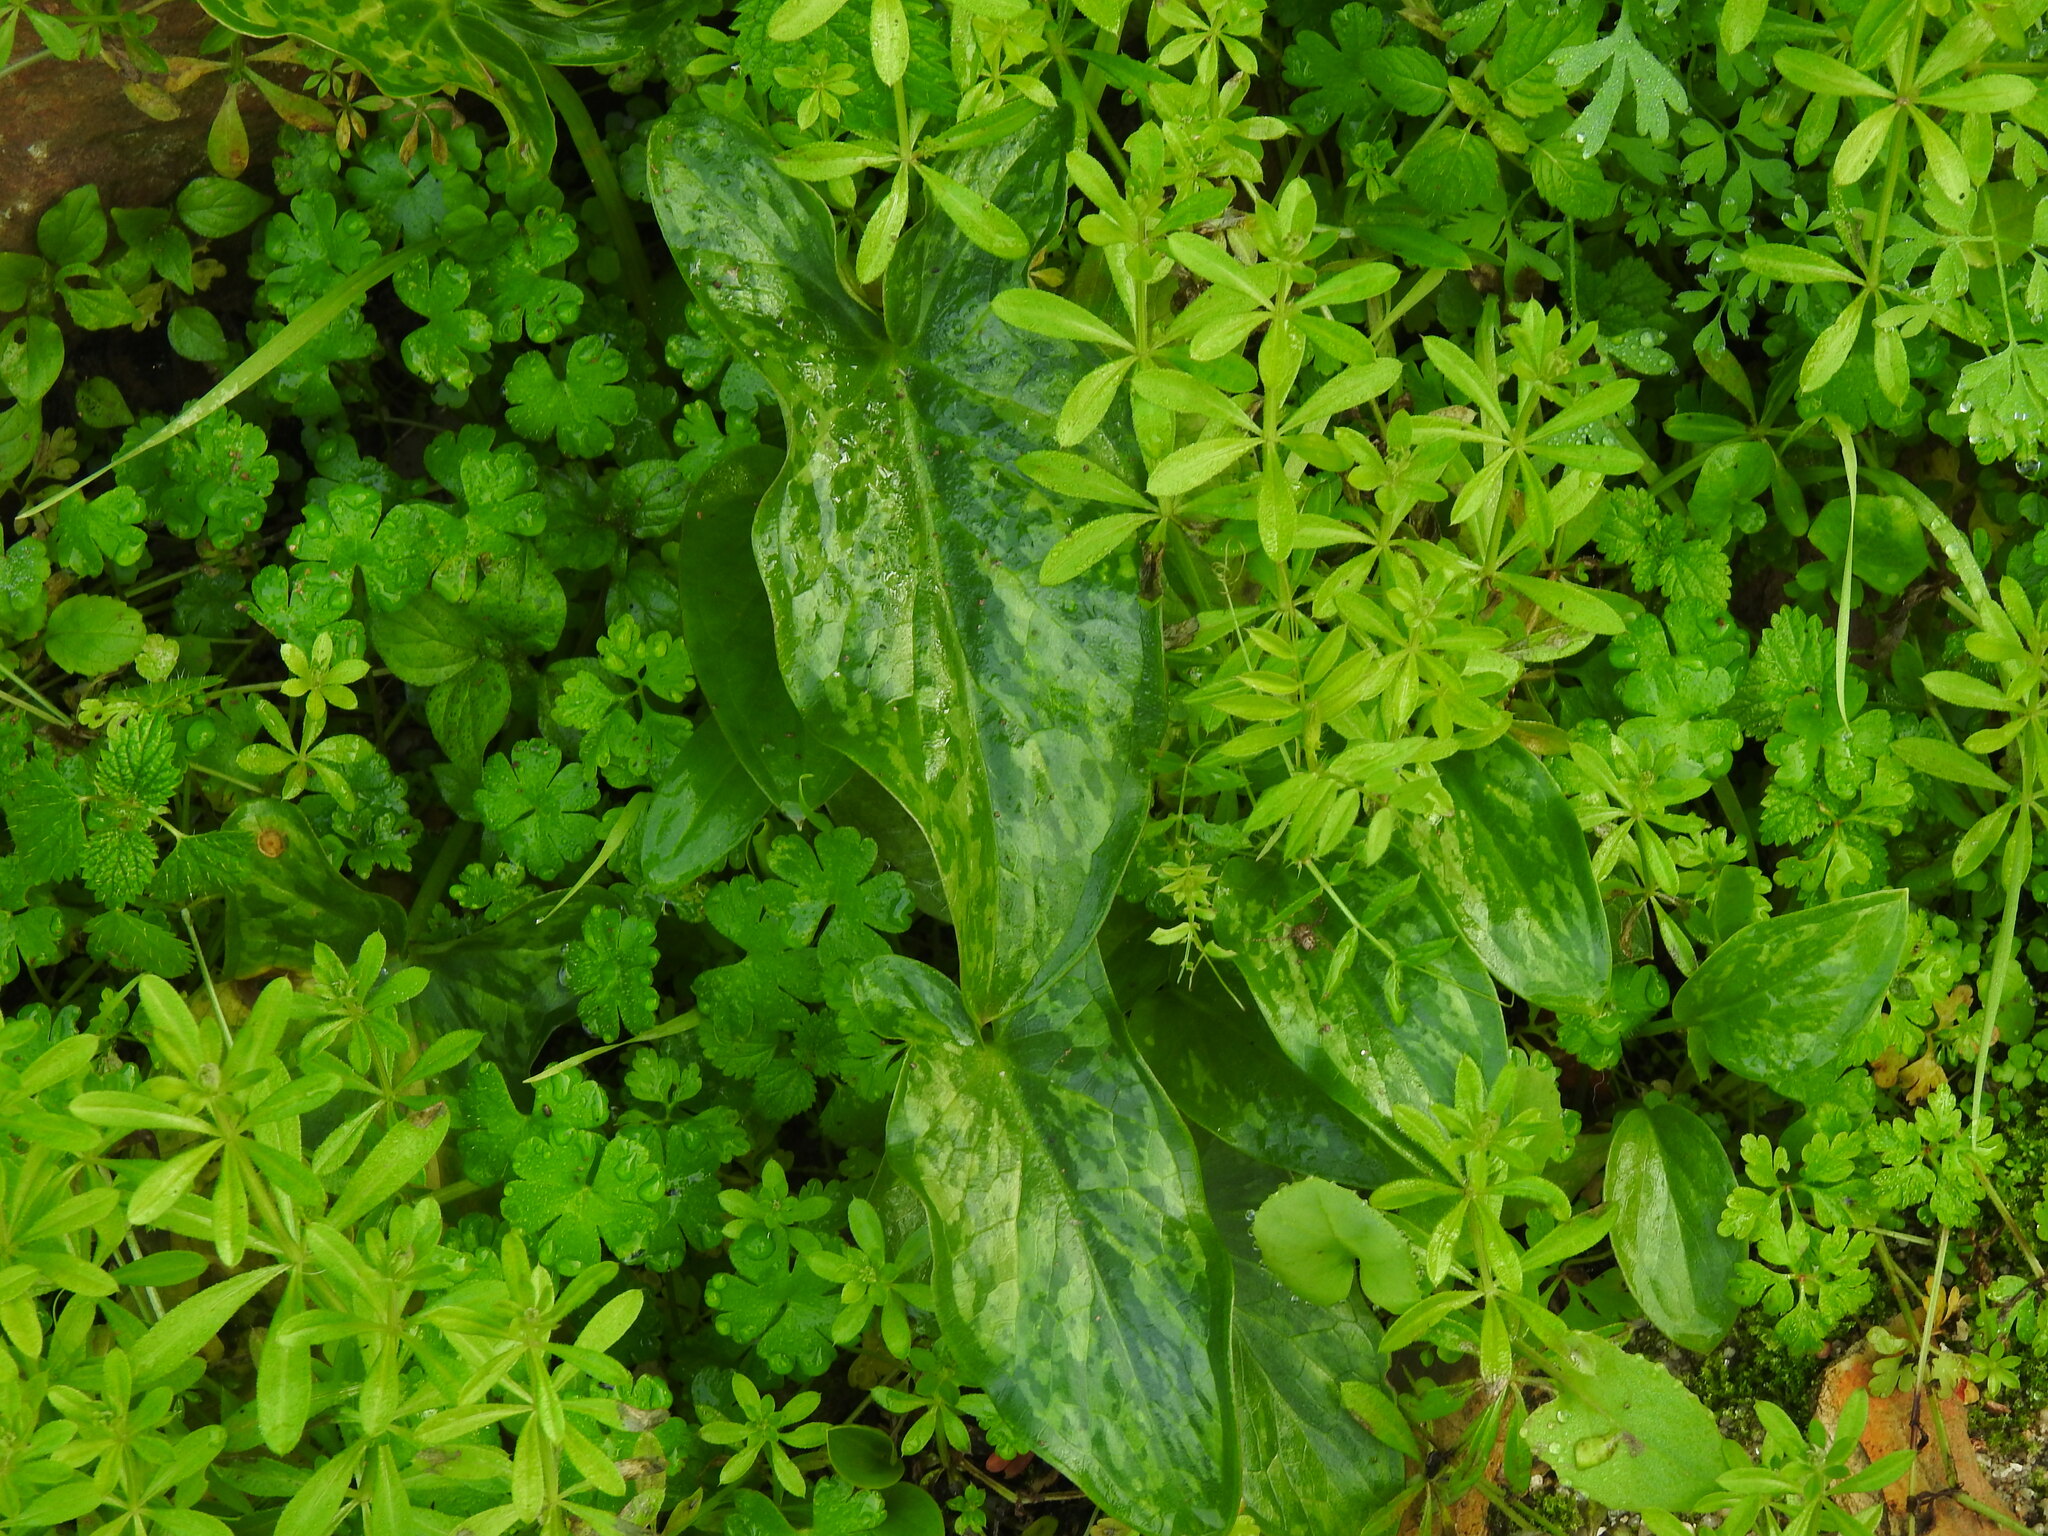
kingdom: Plantae
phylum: Tracheophyta
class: Liliopsida
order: Alismatales
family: Araceae
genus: Arum
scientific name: Arum italicum
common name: Italian lords-and-ladies
